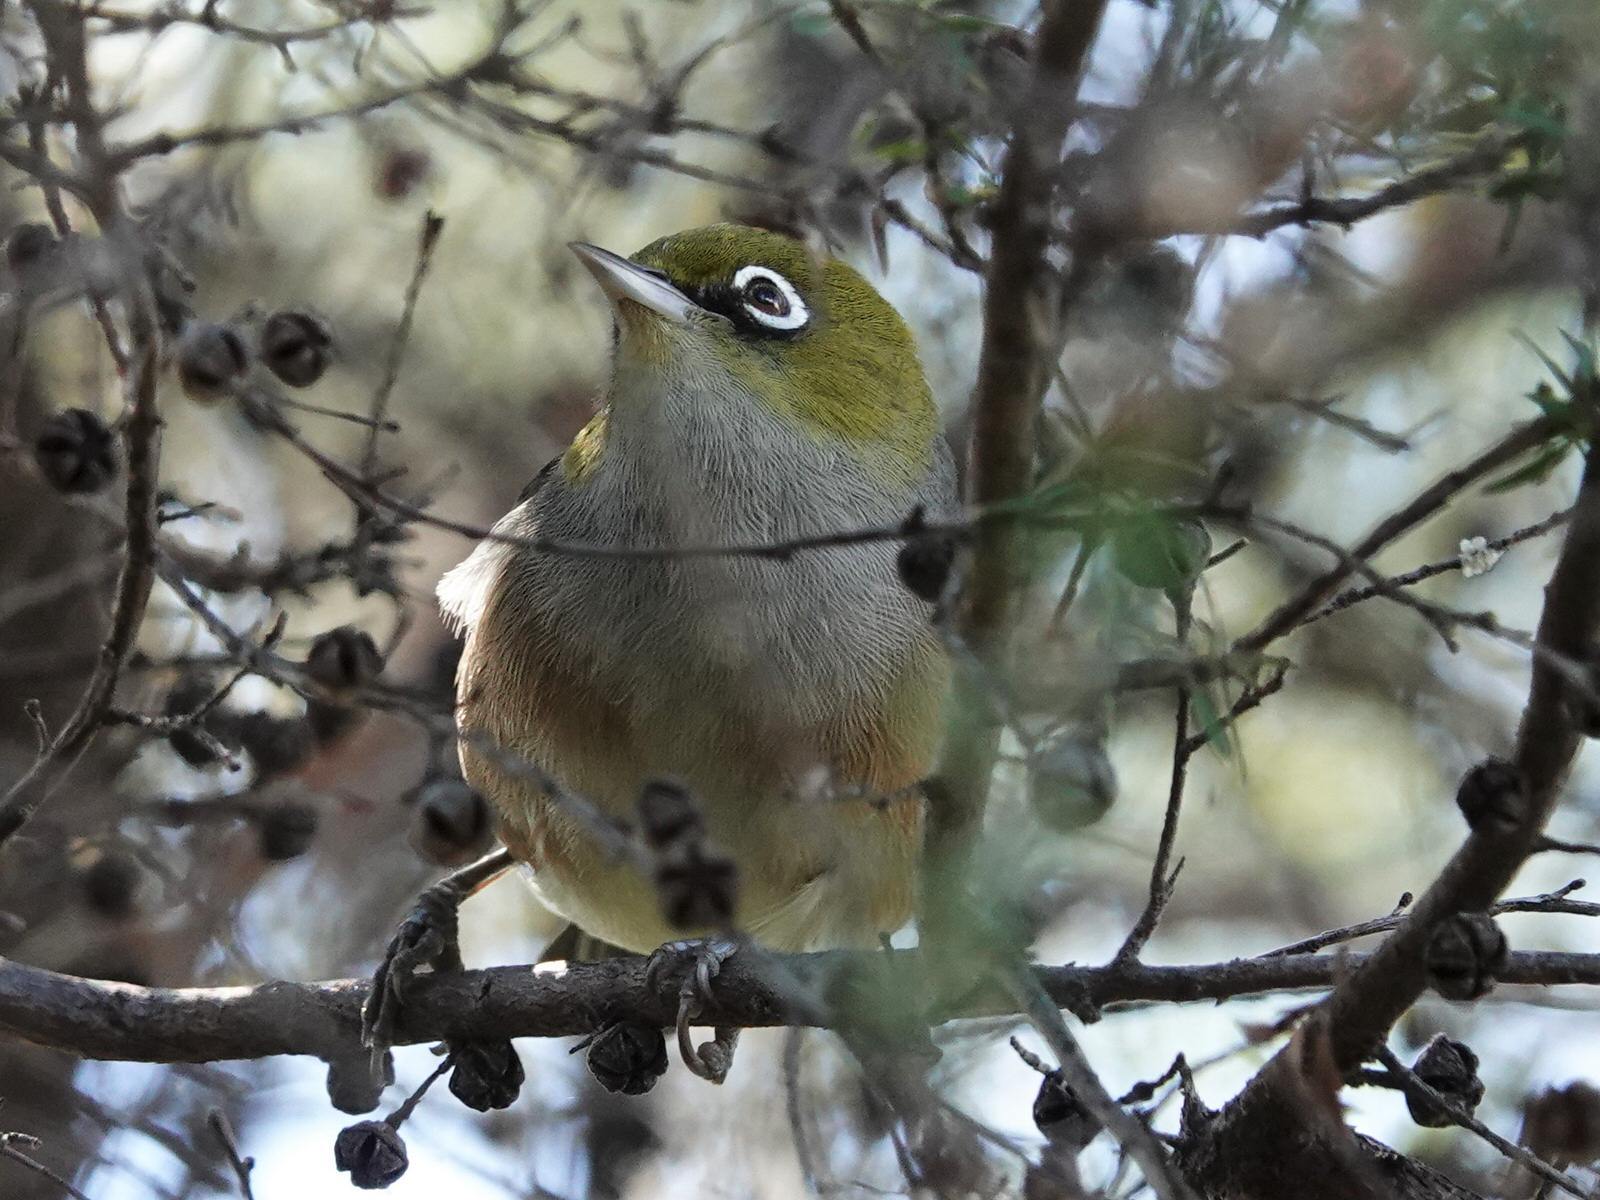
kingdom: Animalia
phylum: Chordata
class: Aves
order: Passeriformes
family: Zosteropidae
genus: Zosterops
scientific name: Zosterops lateralis
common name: Silvereye
